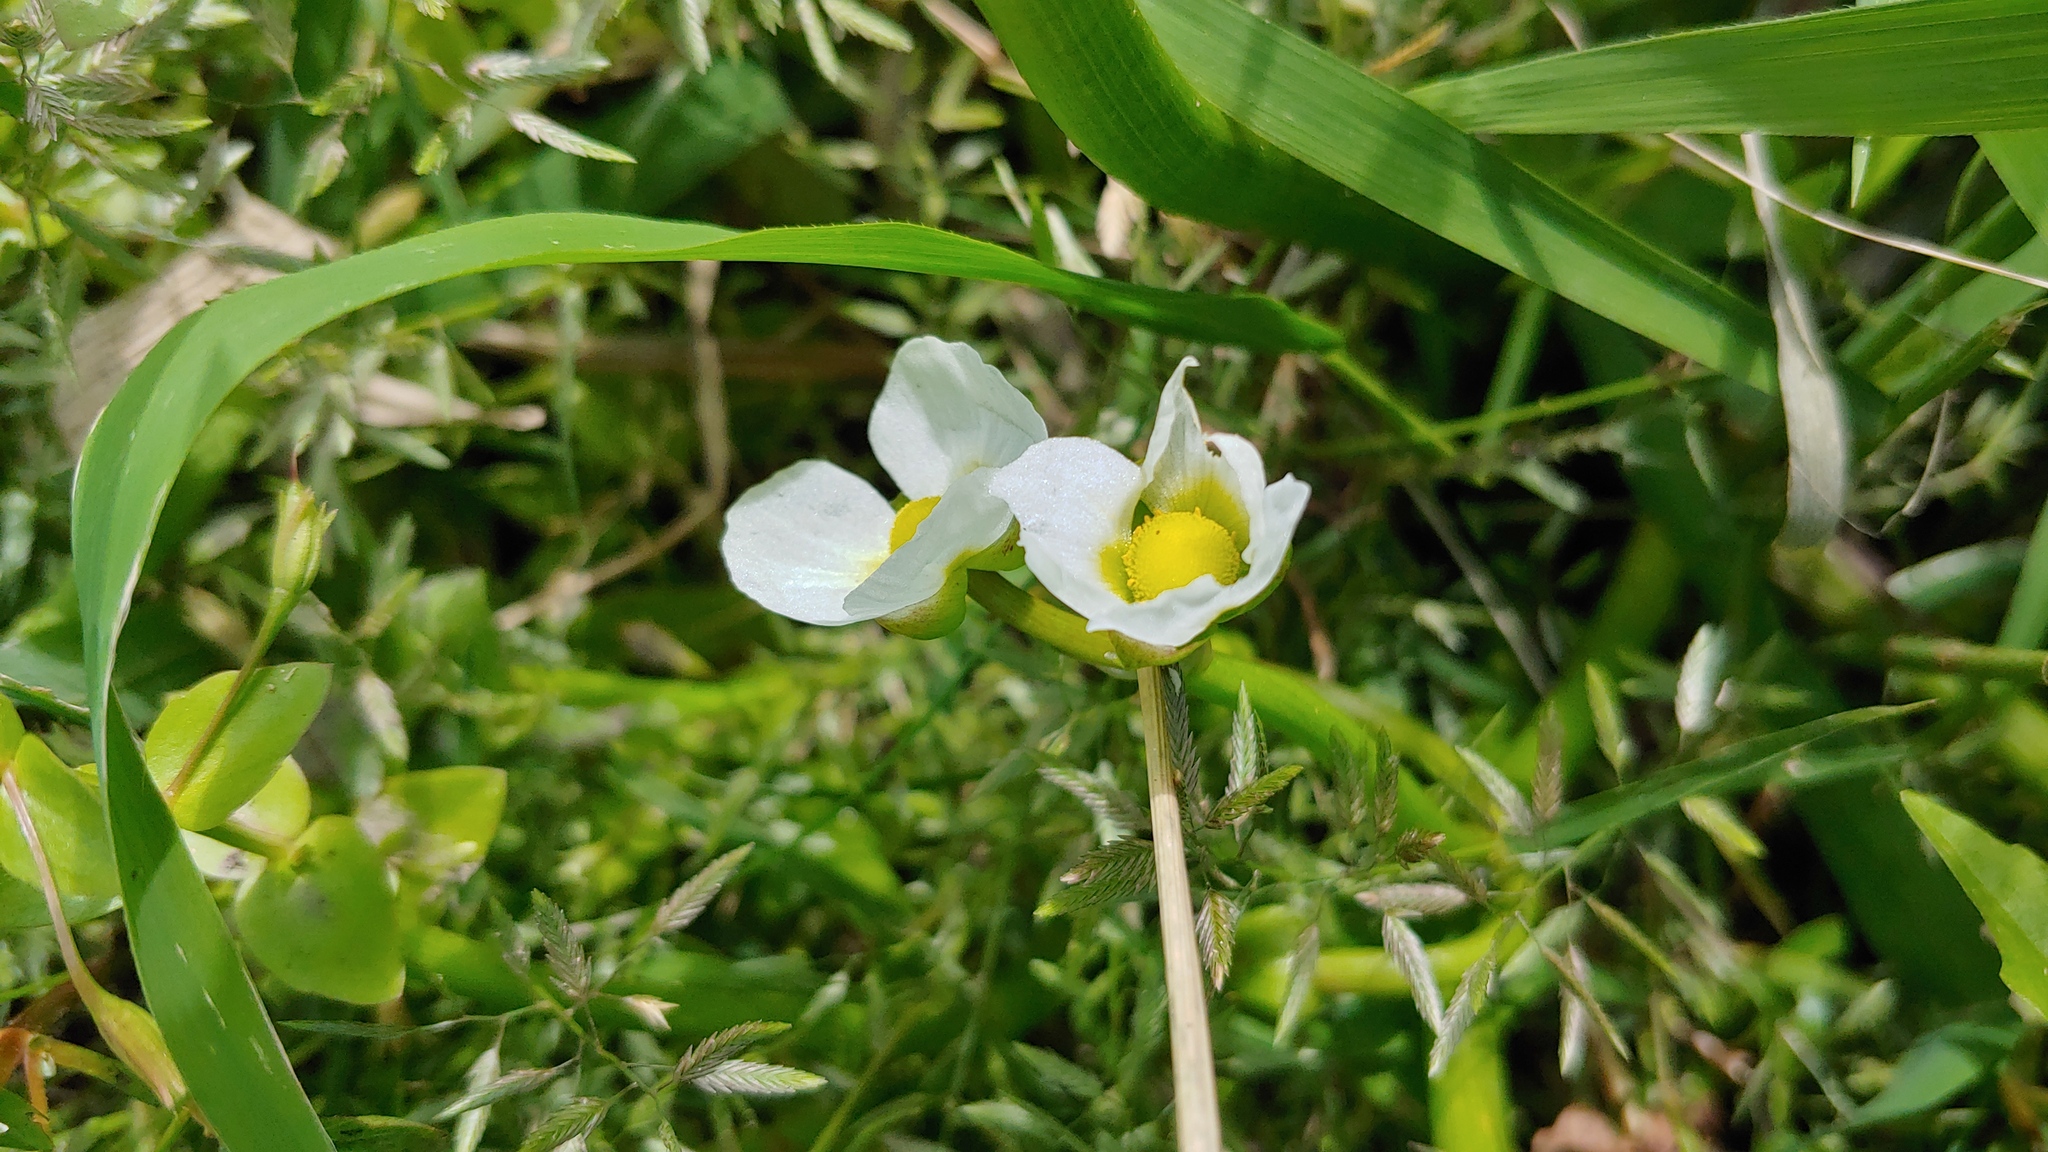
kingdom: Plantae
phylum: Tracheophyta
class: Liliopsida
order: Alismatales
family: Alismataceae
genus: Sagittaria
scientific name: Sagittaria calycina
